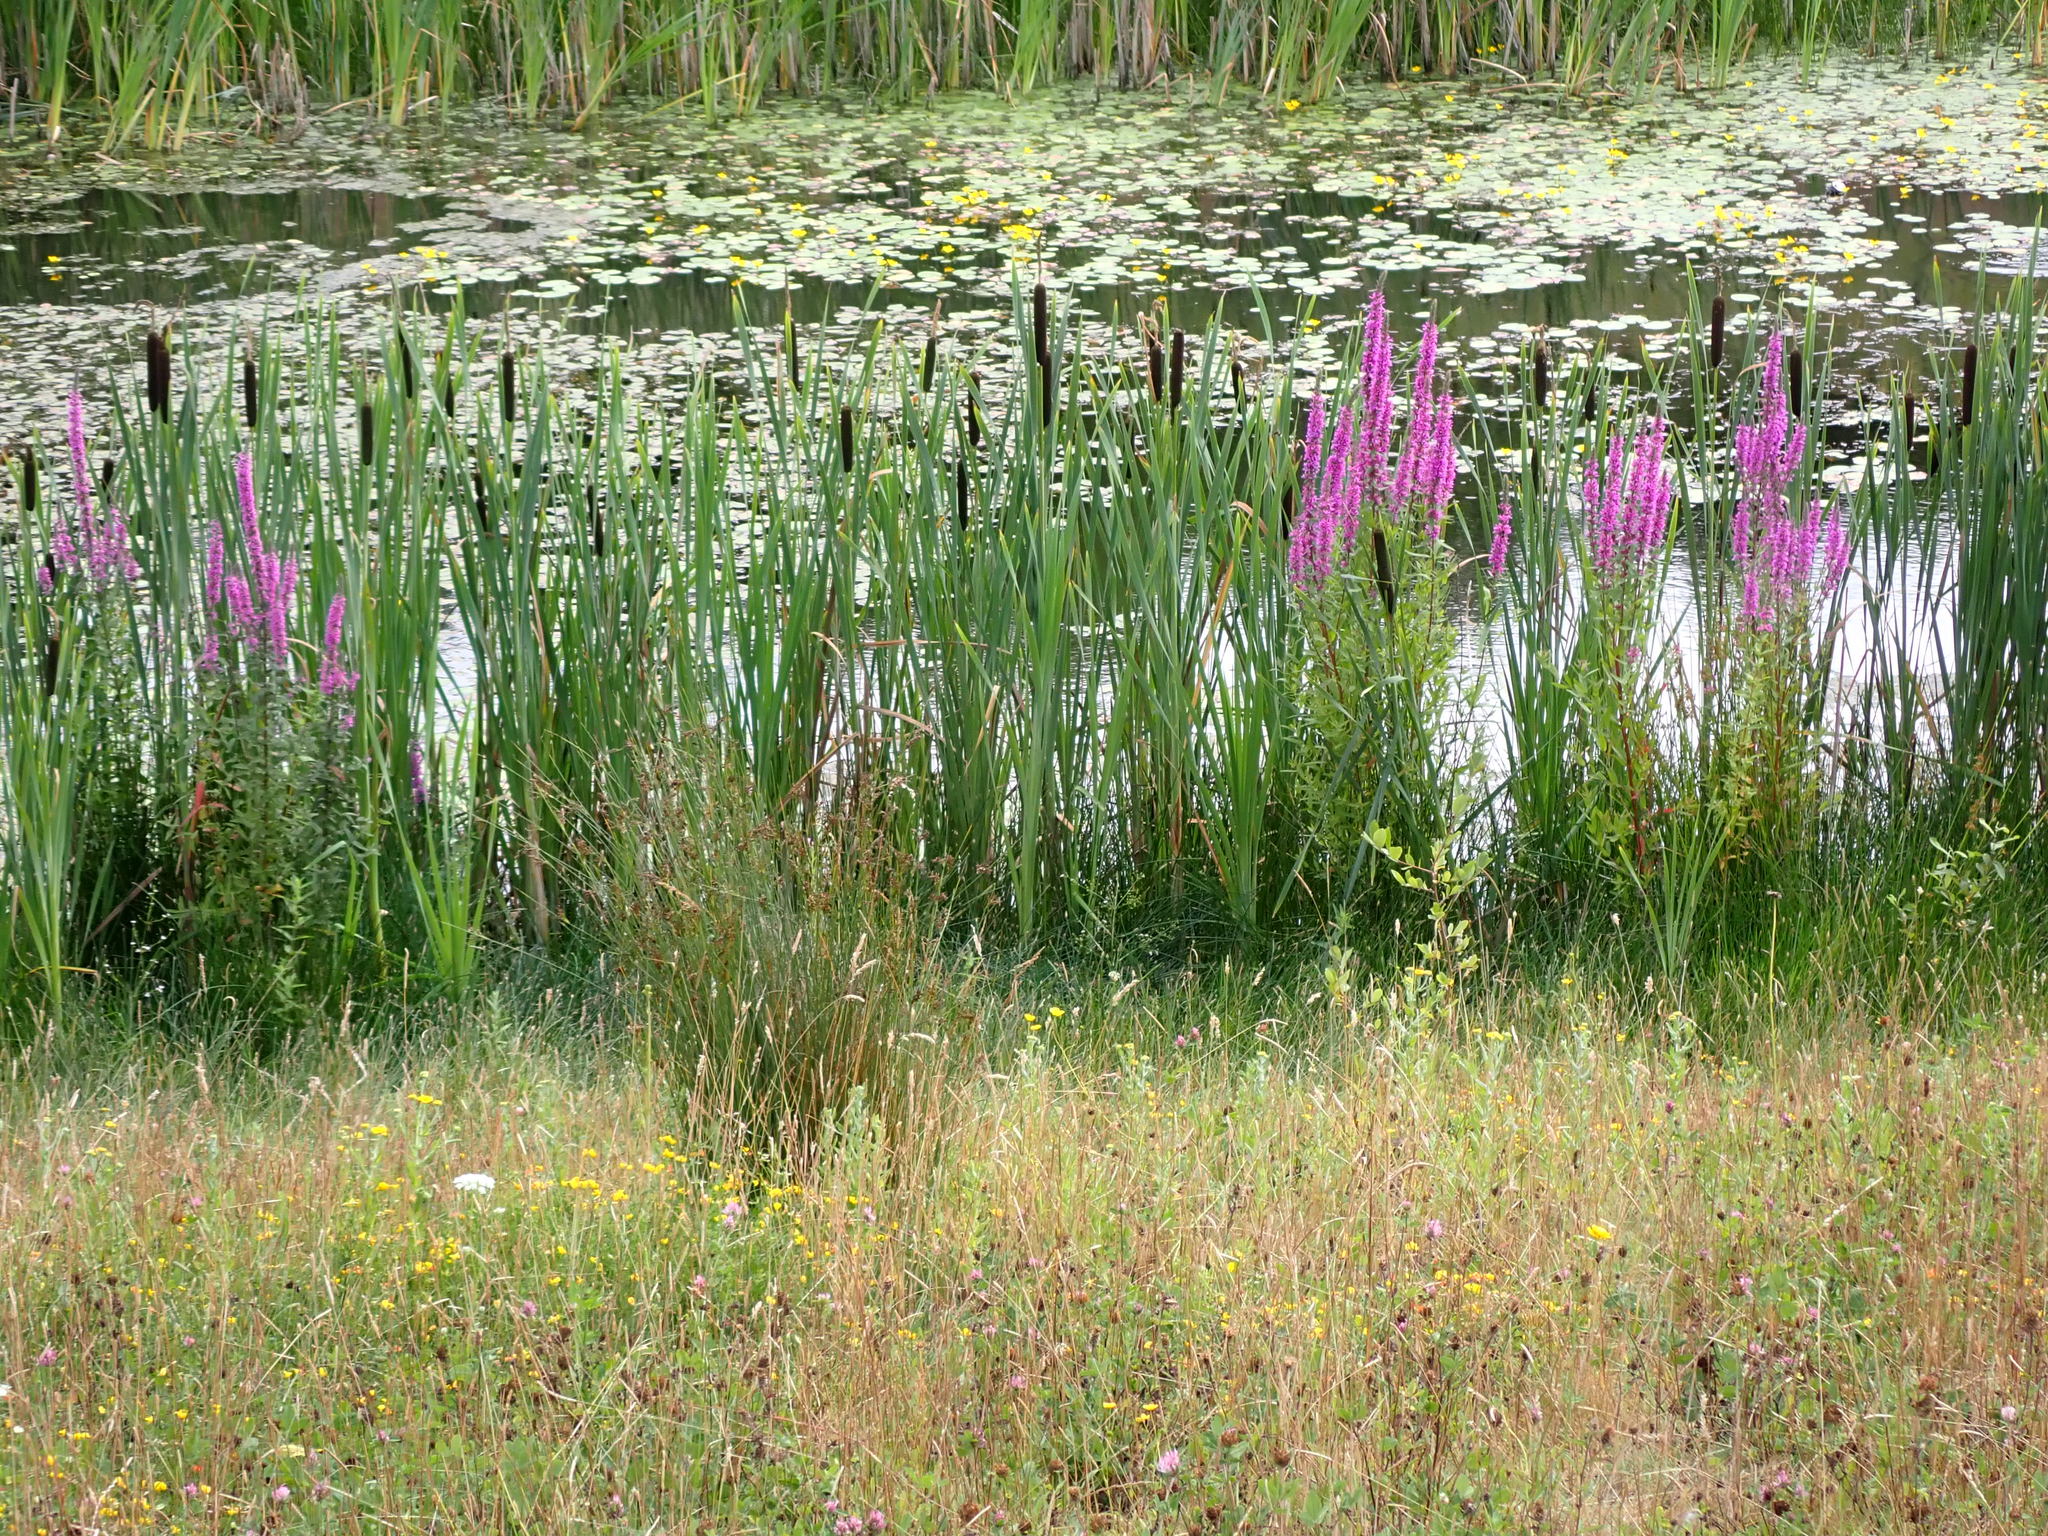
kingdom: Plantae
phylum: Tracheophyta
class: Liliopsida
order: Poales
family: Typhaceae
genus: Typha
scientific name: Typha latifolia
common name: Broadleaf cattail
